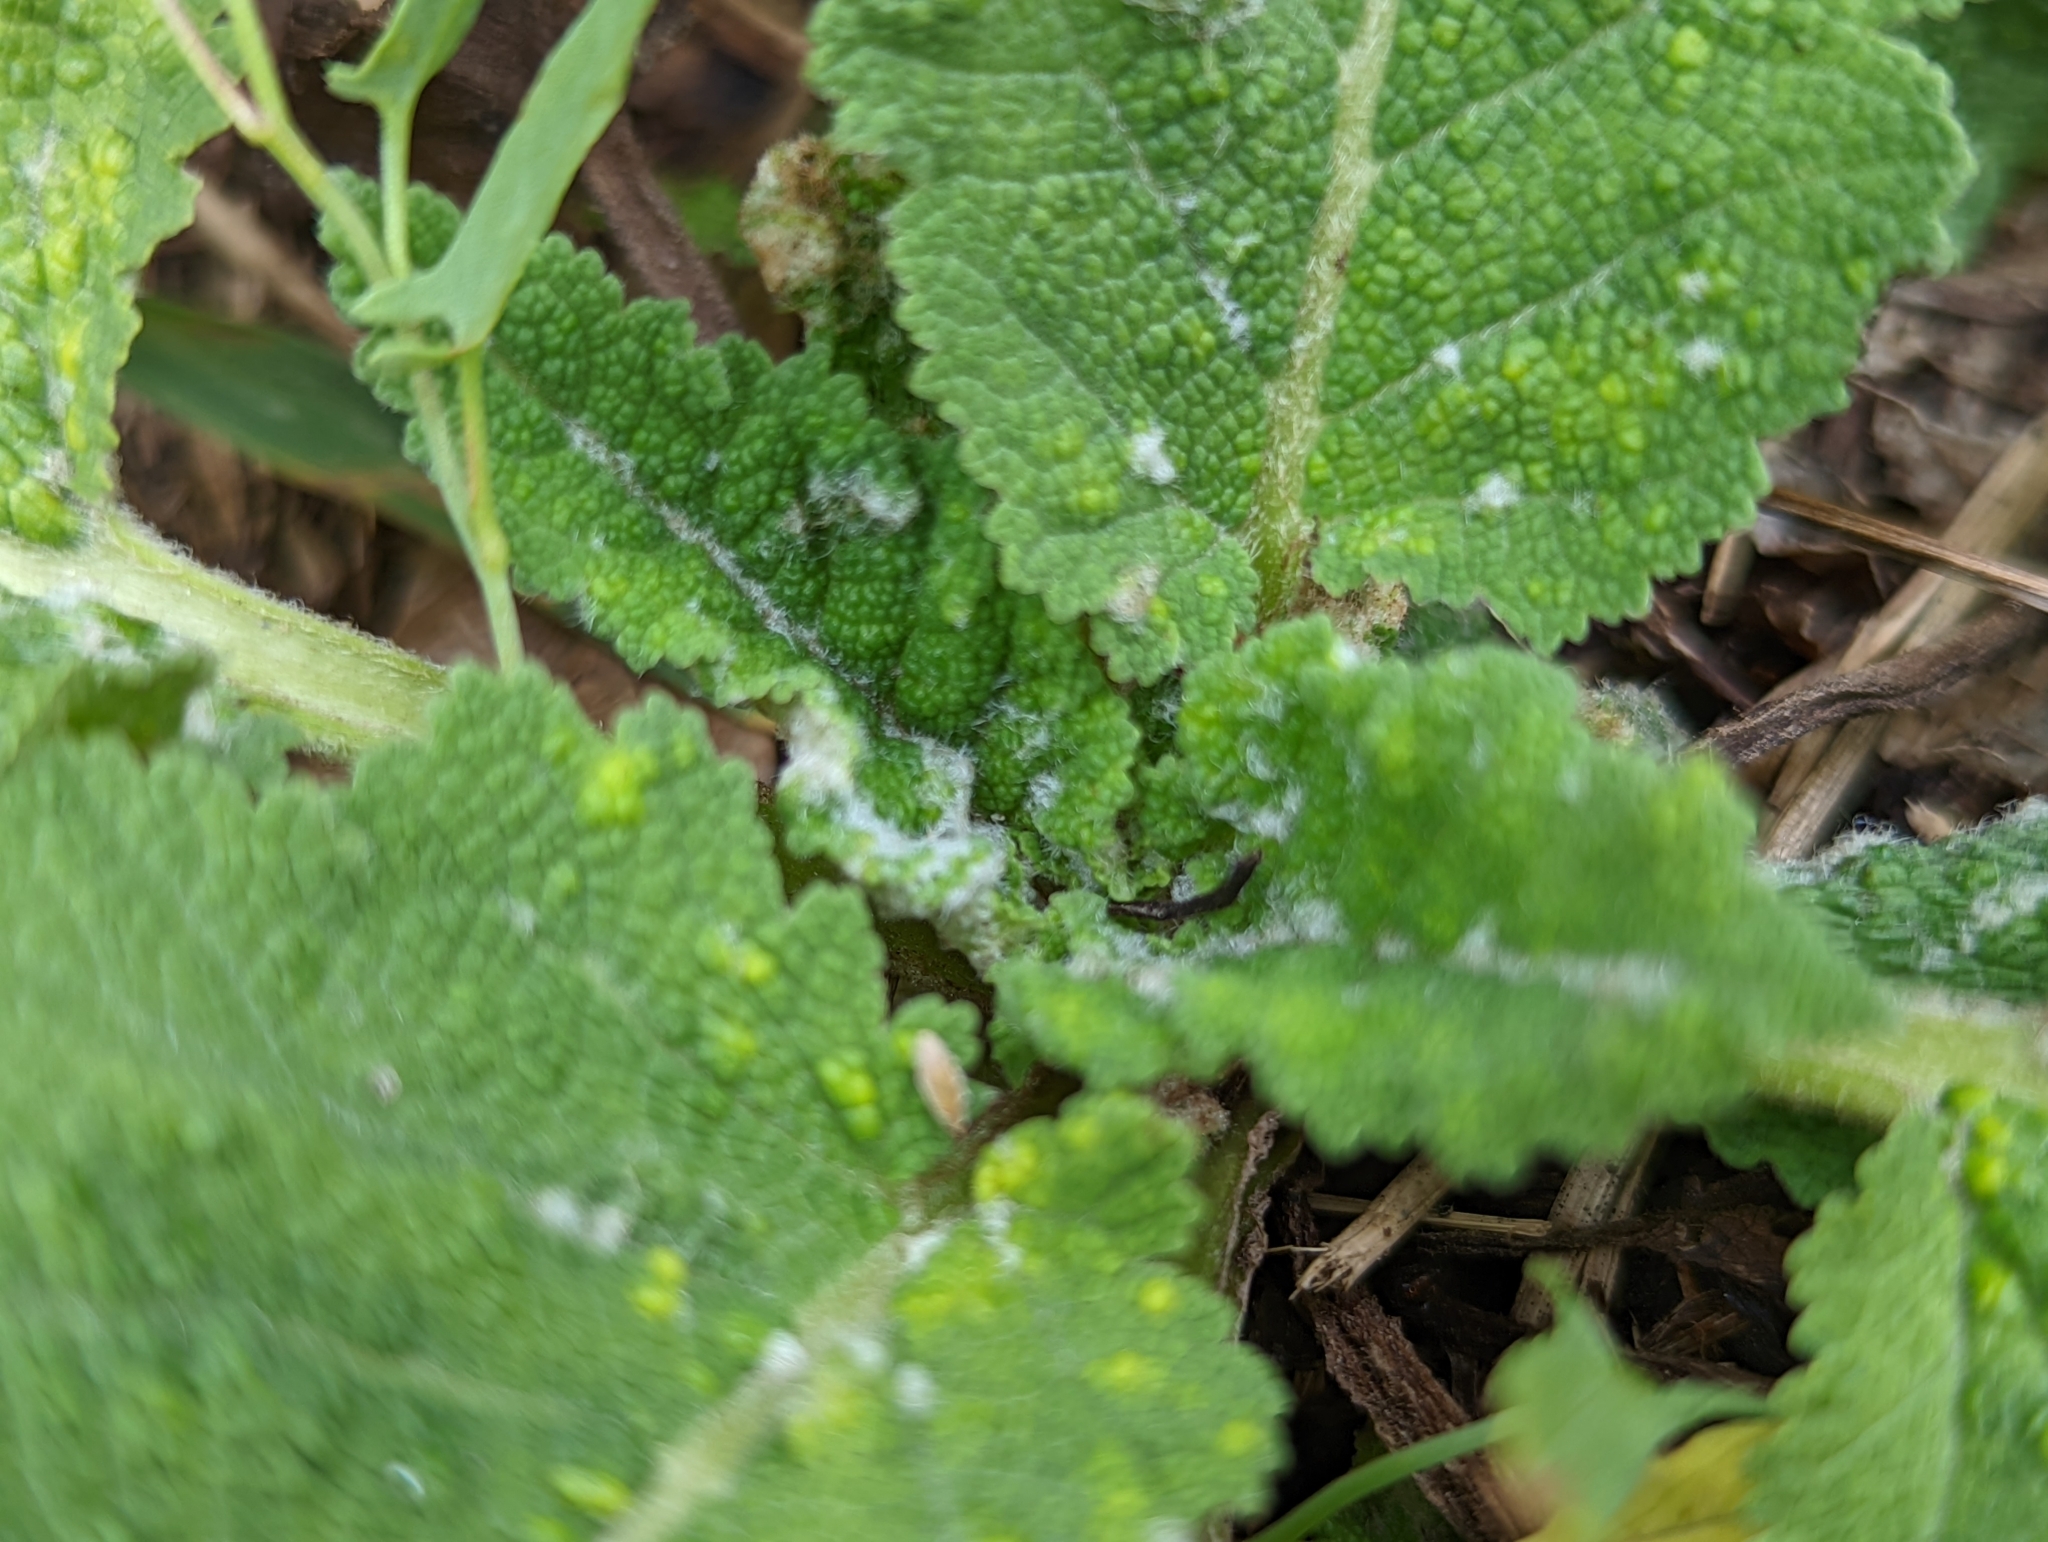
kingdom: Animalia
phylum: Arthropoda
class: Arachnida
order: Trombidiformes
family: Eriophyidae
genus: Aceria
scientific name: Aceria salviae
